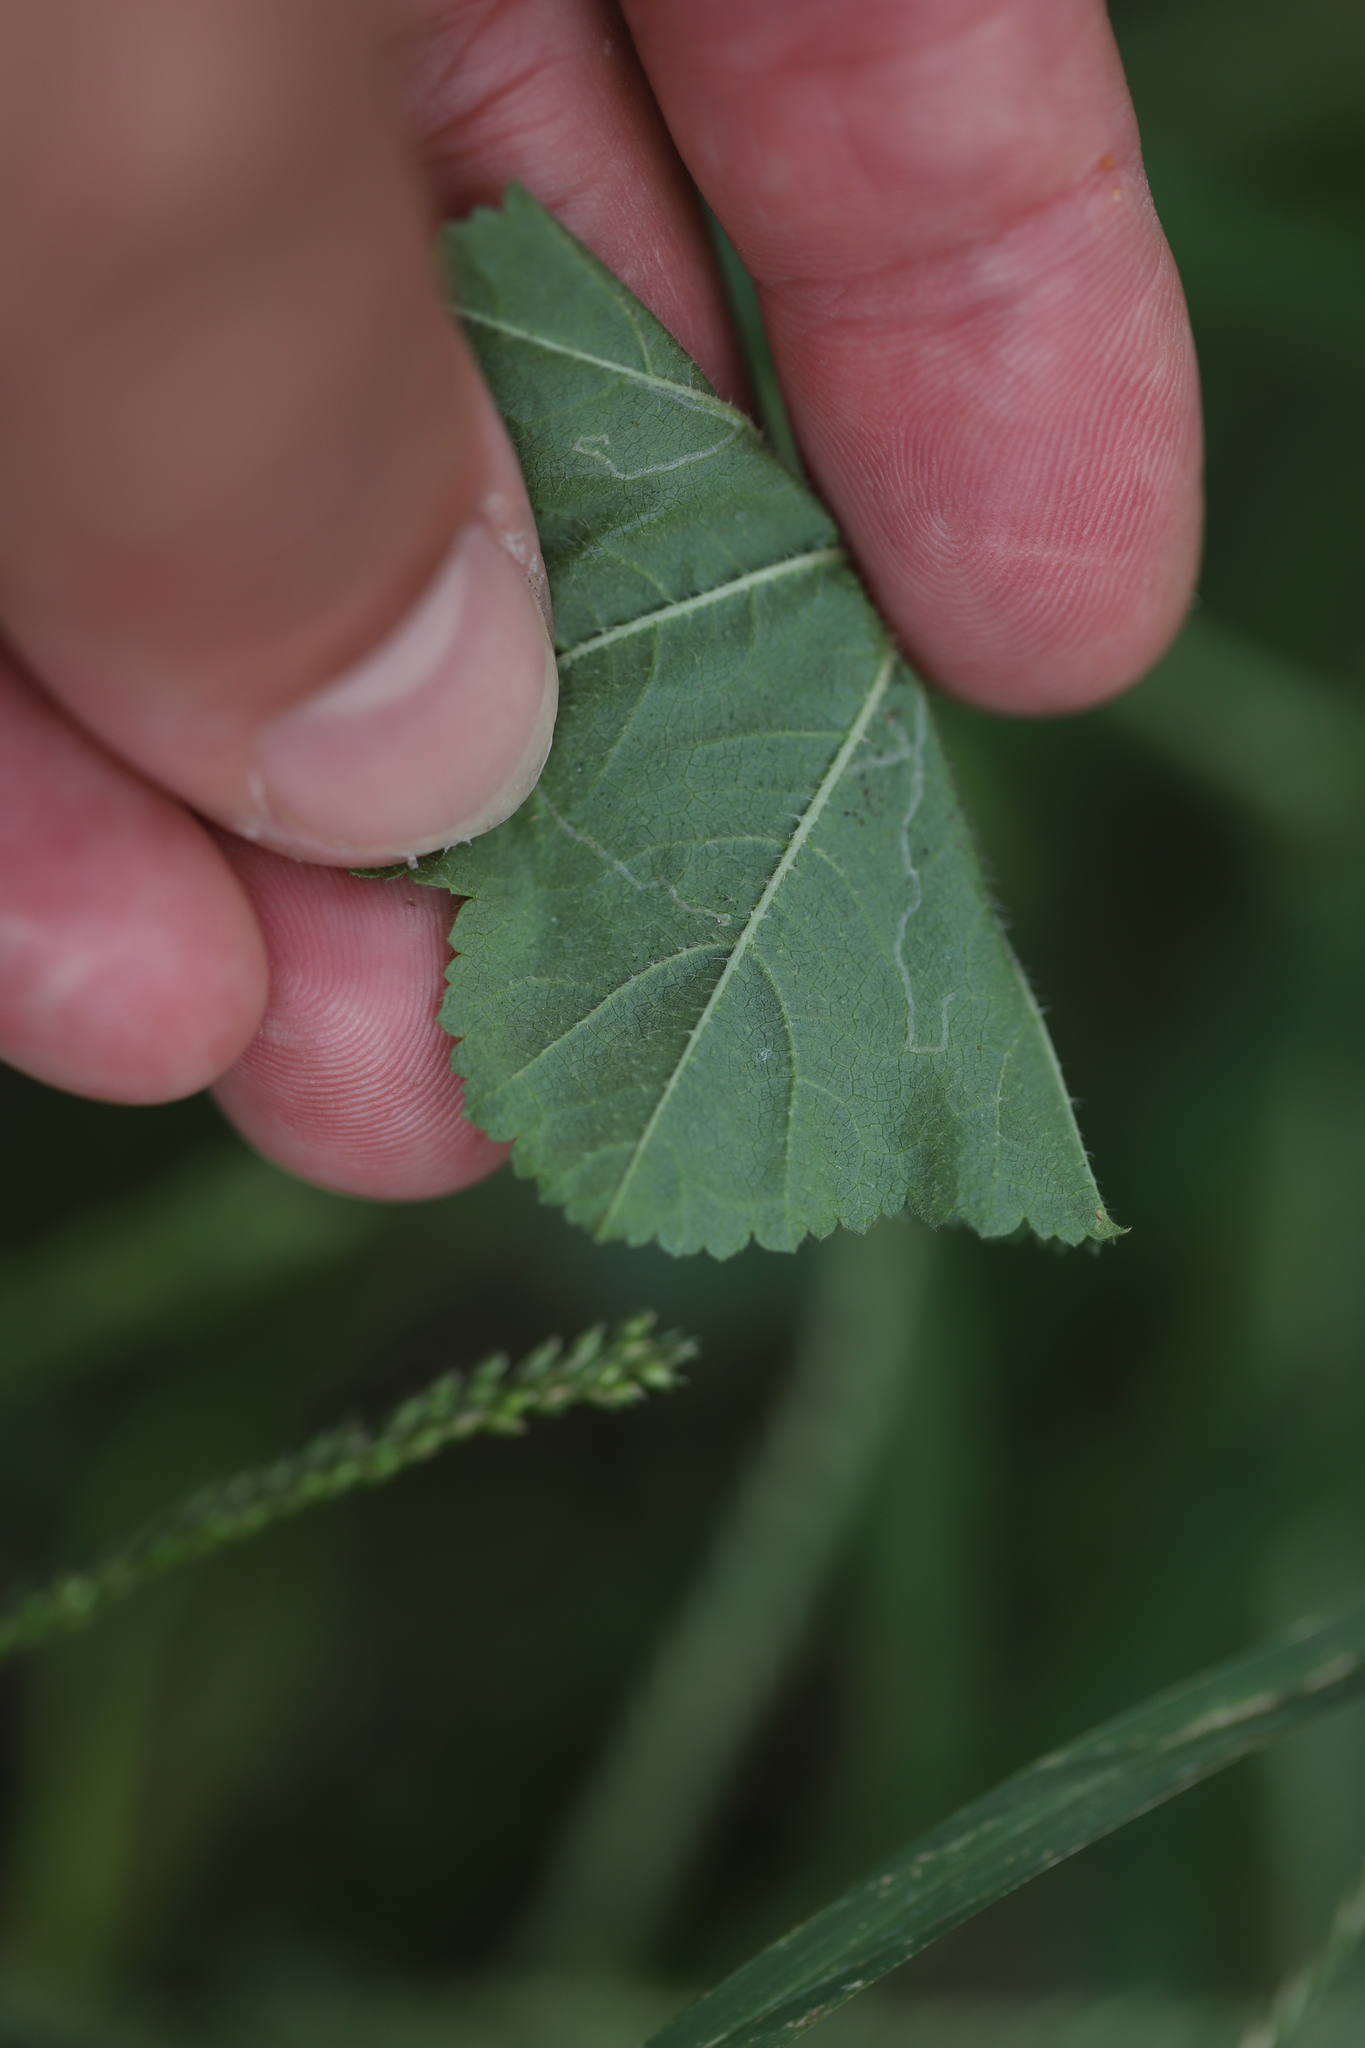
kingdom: Animalia
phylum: Arthropoda
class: Insecta
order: Diptera
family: Agromyzidae
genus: Calycomyza
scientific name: Calycomyza malvae
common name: Mallow leaf miner
